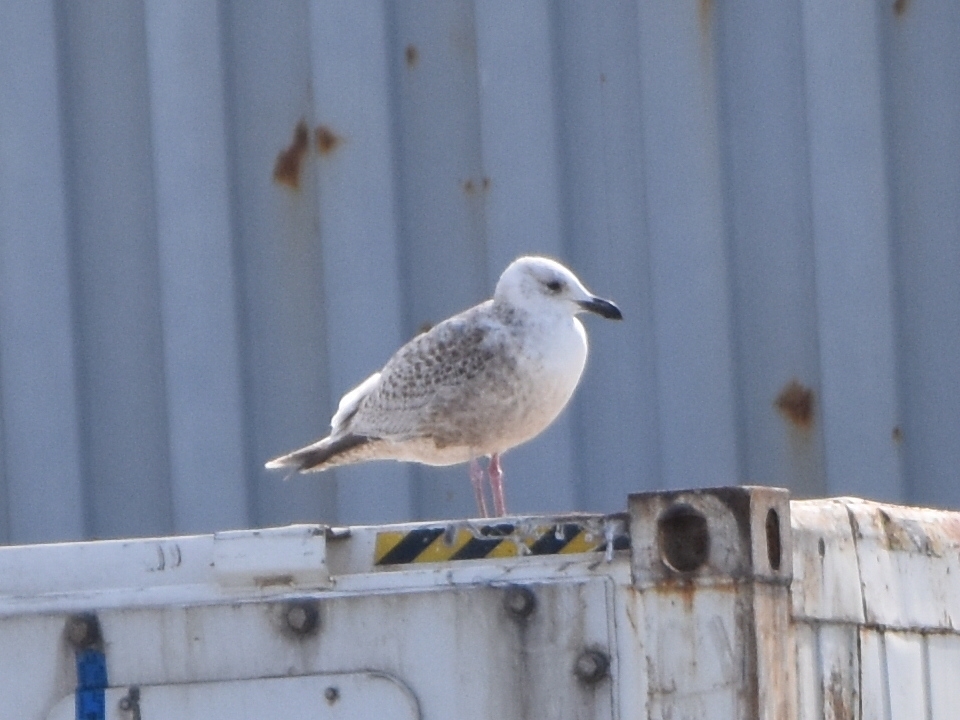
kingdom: Animalia
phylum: Chordata
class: Aves
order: Charadriiformes
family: Laridae
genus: Larus
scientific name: Larus schistisagus
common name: Slaty-backed gull
